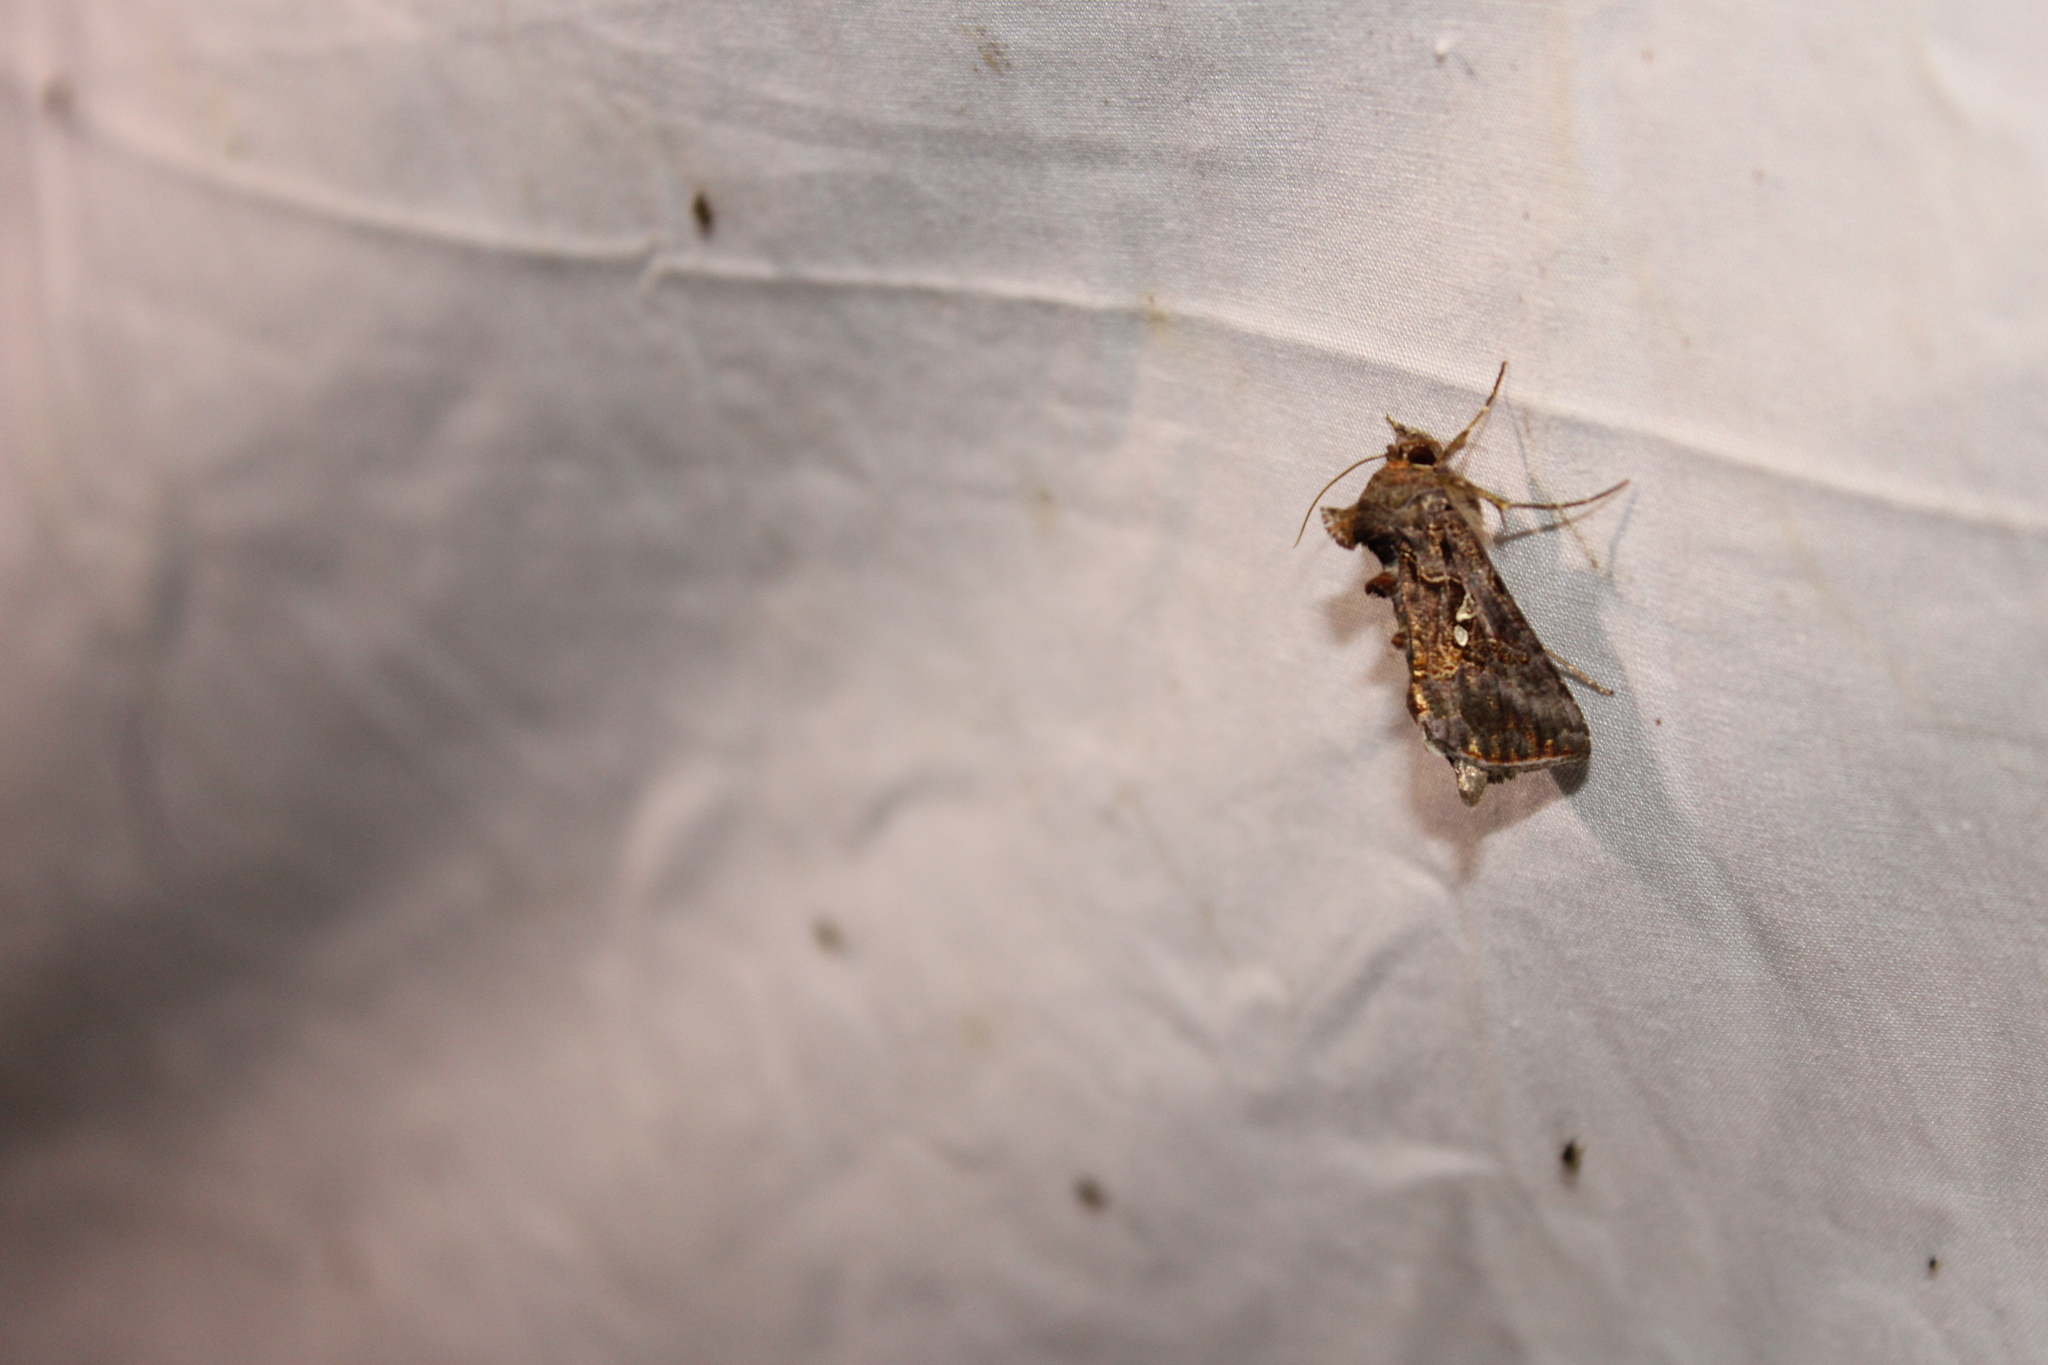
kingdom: Animalia
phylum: Arthropoda
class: Insecta
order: Lepidoptera
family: Noctuidae
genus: Chrysodeixis
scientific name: Chrysodeixis includens
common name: Cutworm moth
